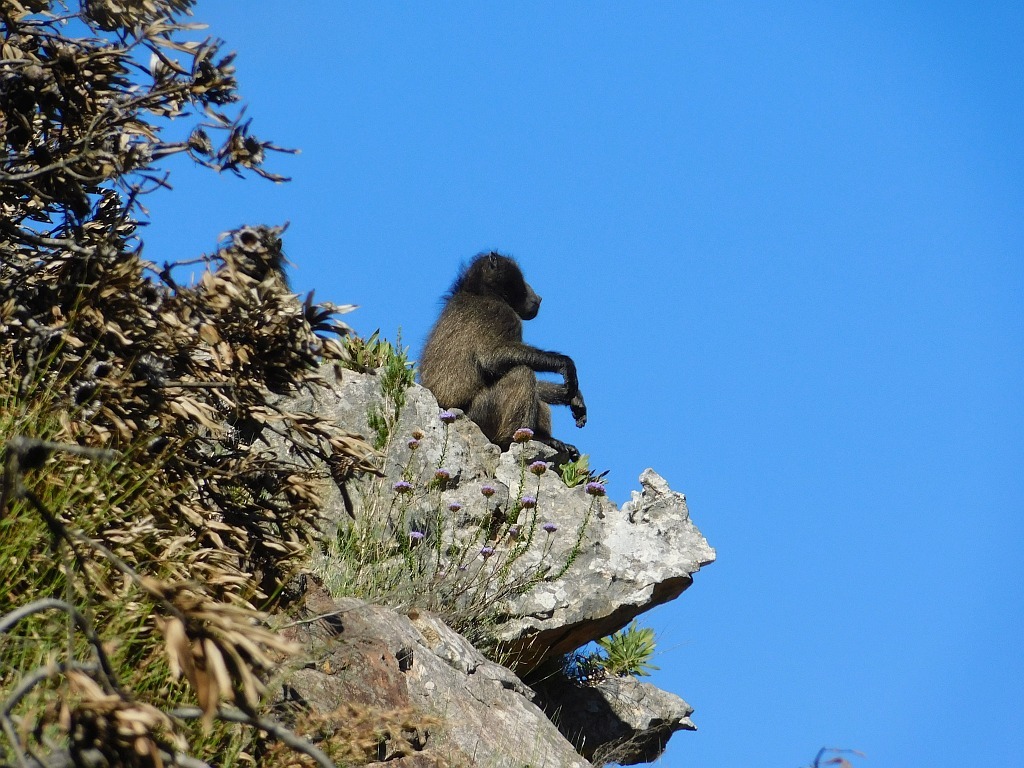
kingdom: Animalia
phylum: Chordata
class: Mammalia
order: Primates
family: Cercopithecidae
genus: Papio
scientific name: Papio ursinus
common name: Chacma baboon
